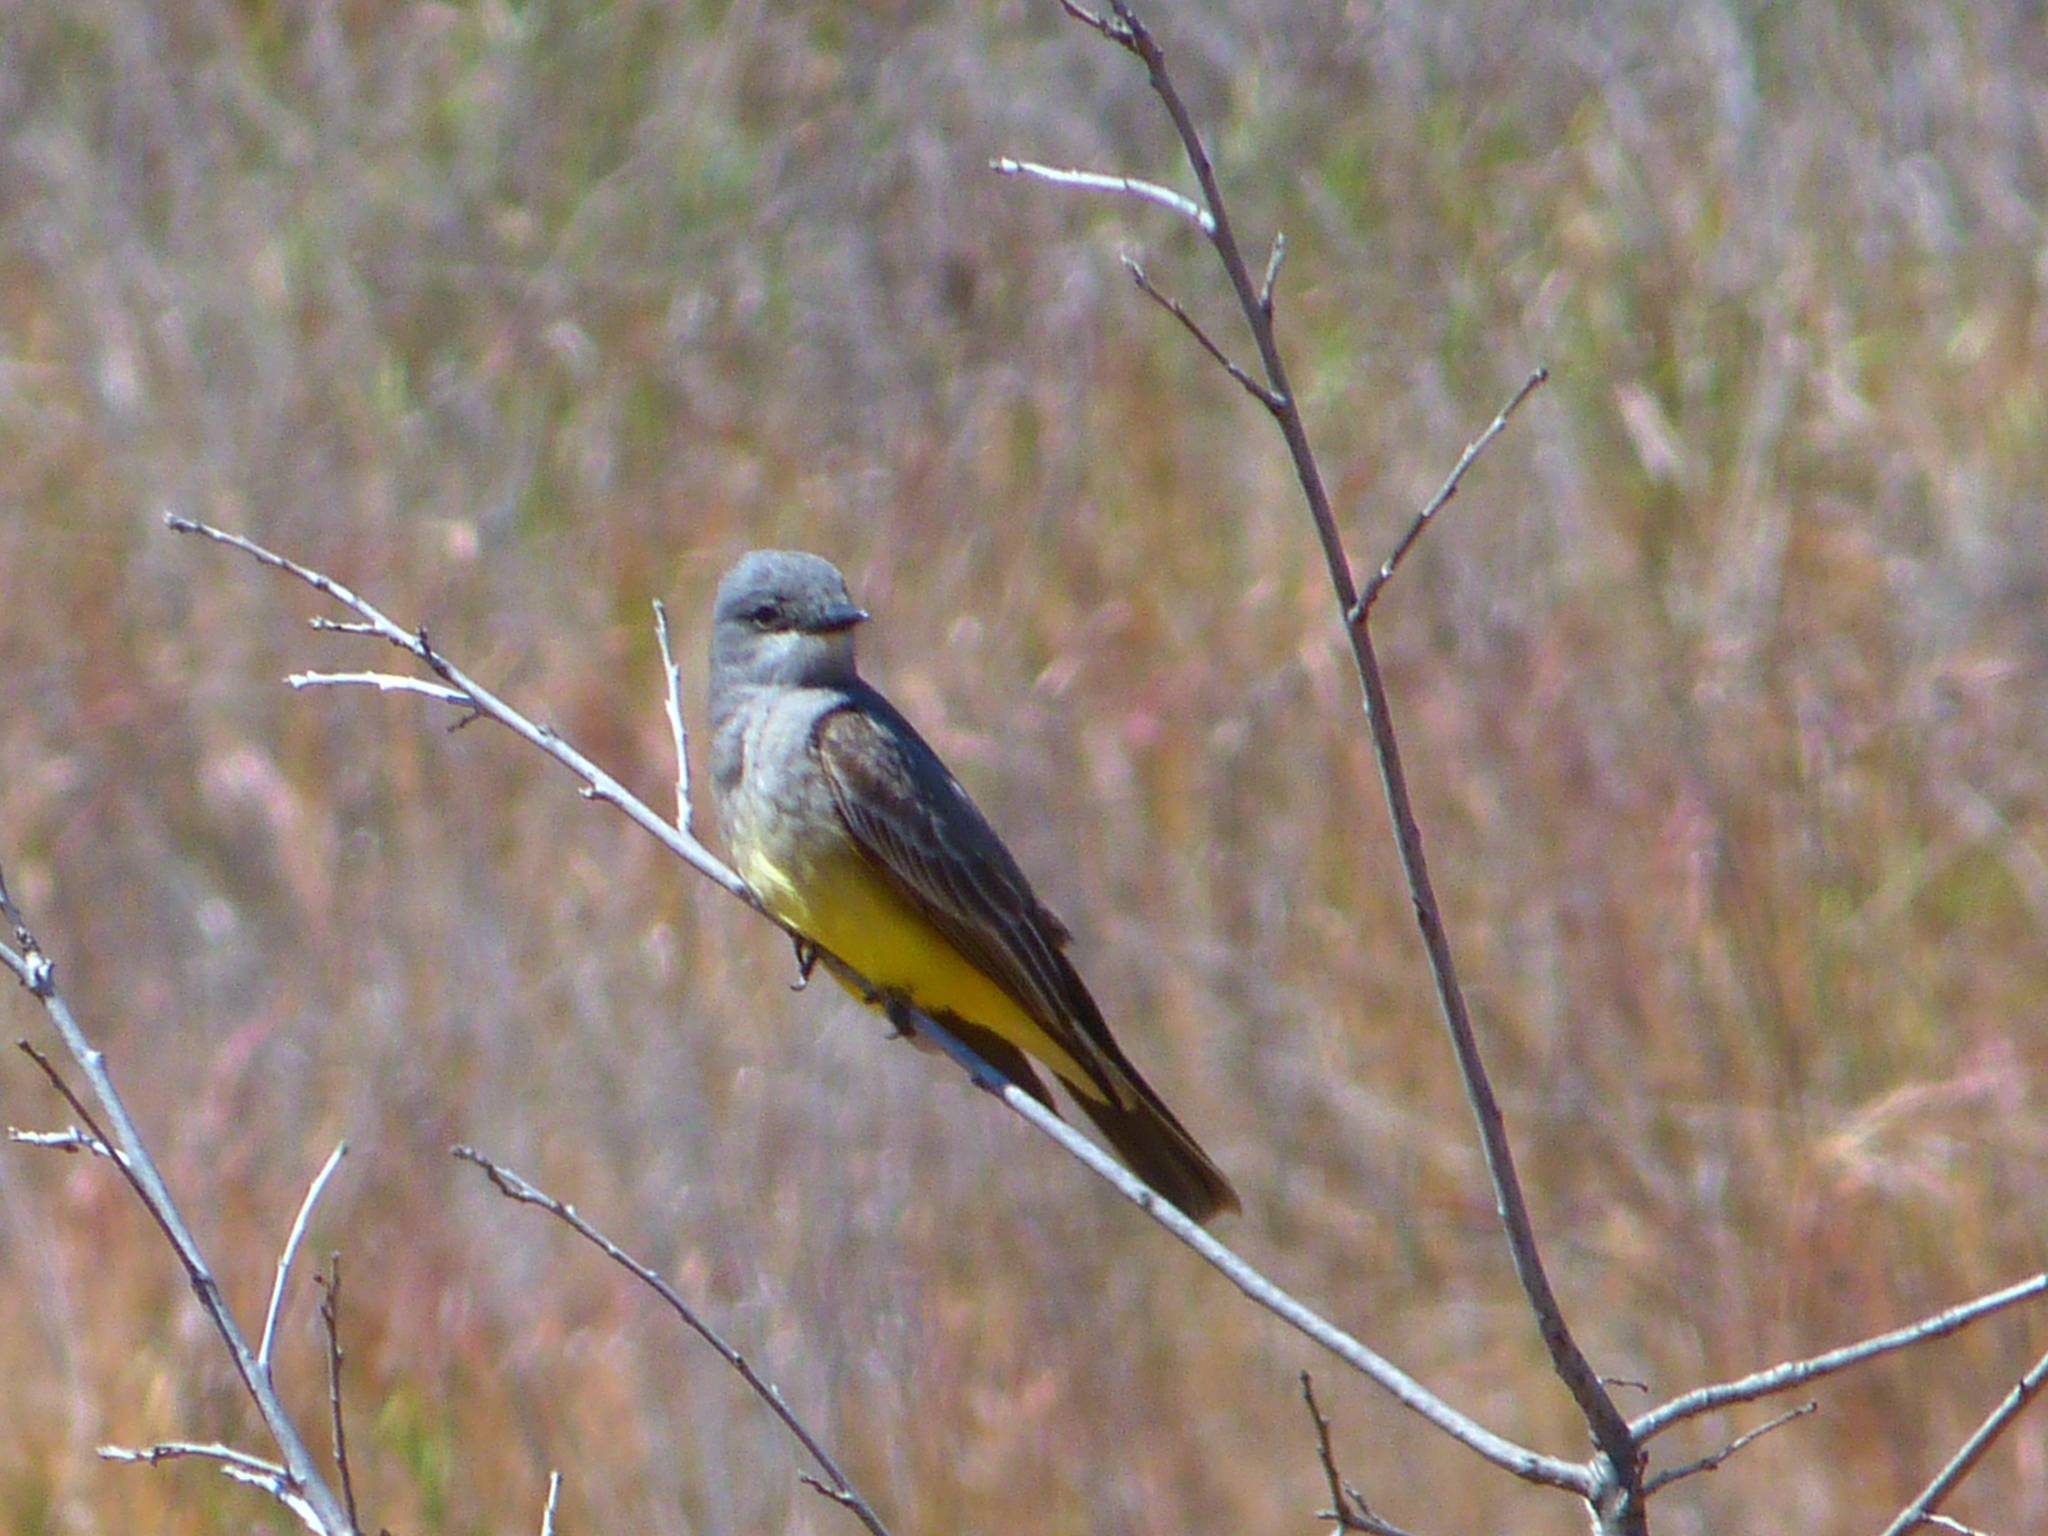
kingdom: Animalia
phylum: Chordata
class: Aves
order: Passeriformes
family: Tyrannidae
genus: Tyrannus
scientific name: Tyrannus vociferans
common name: Cassin's kingbird
